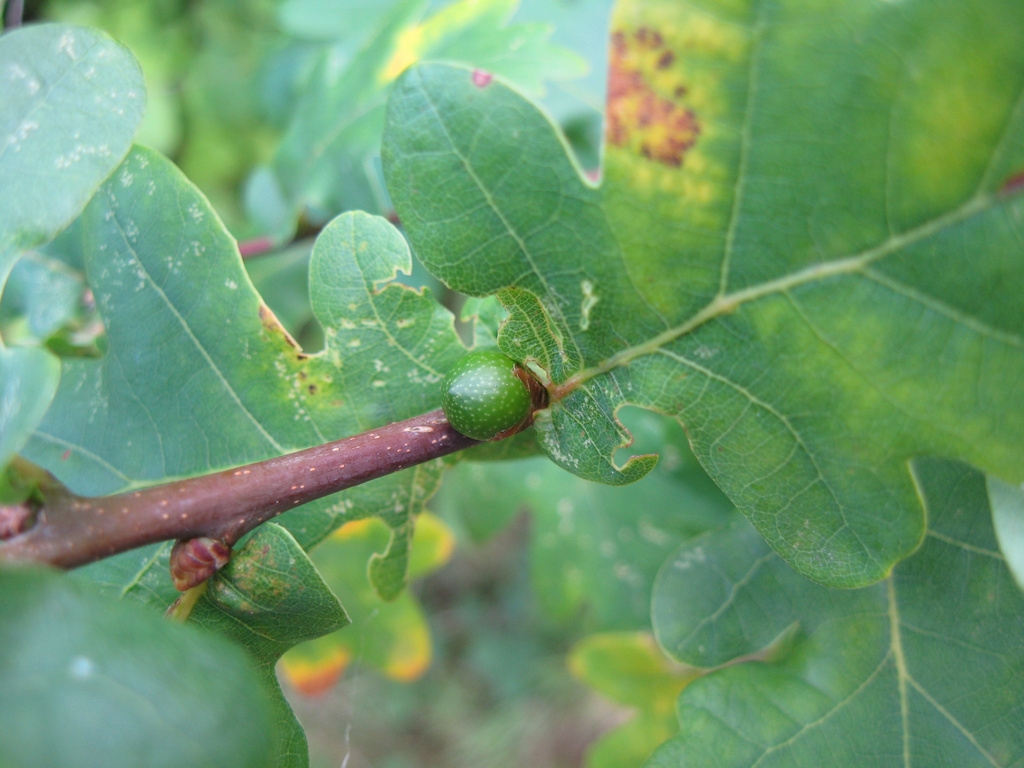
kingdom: Animalia
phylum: Arthropoda
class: Insecta
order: Hymenoptera
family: Cynipidae
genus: Andricus
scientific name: Andricus inflator
